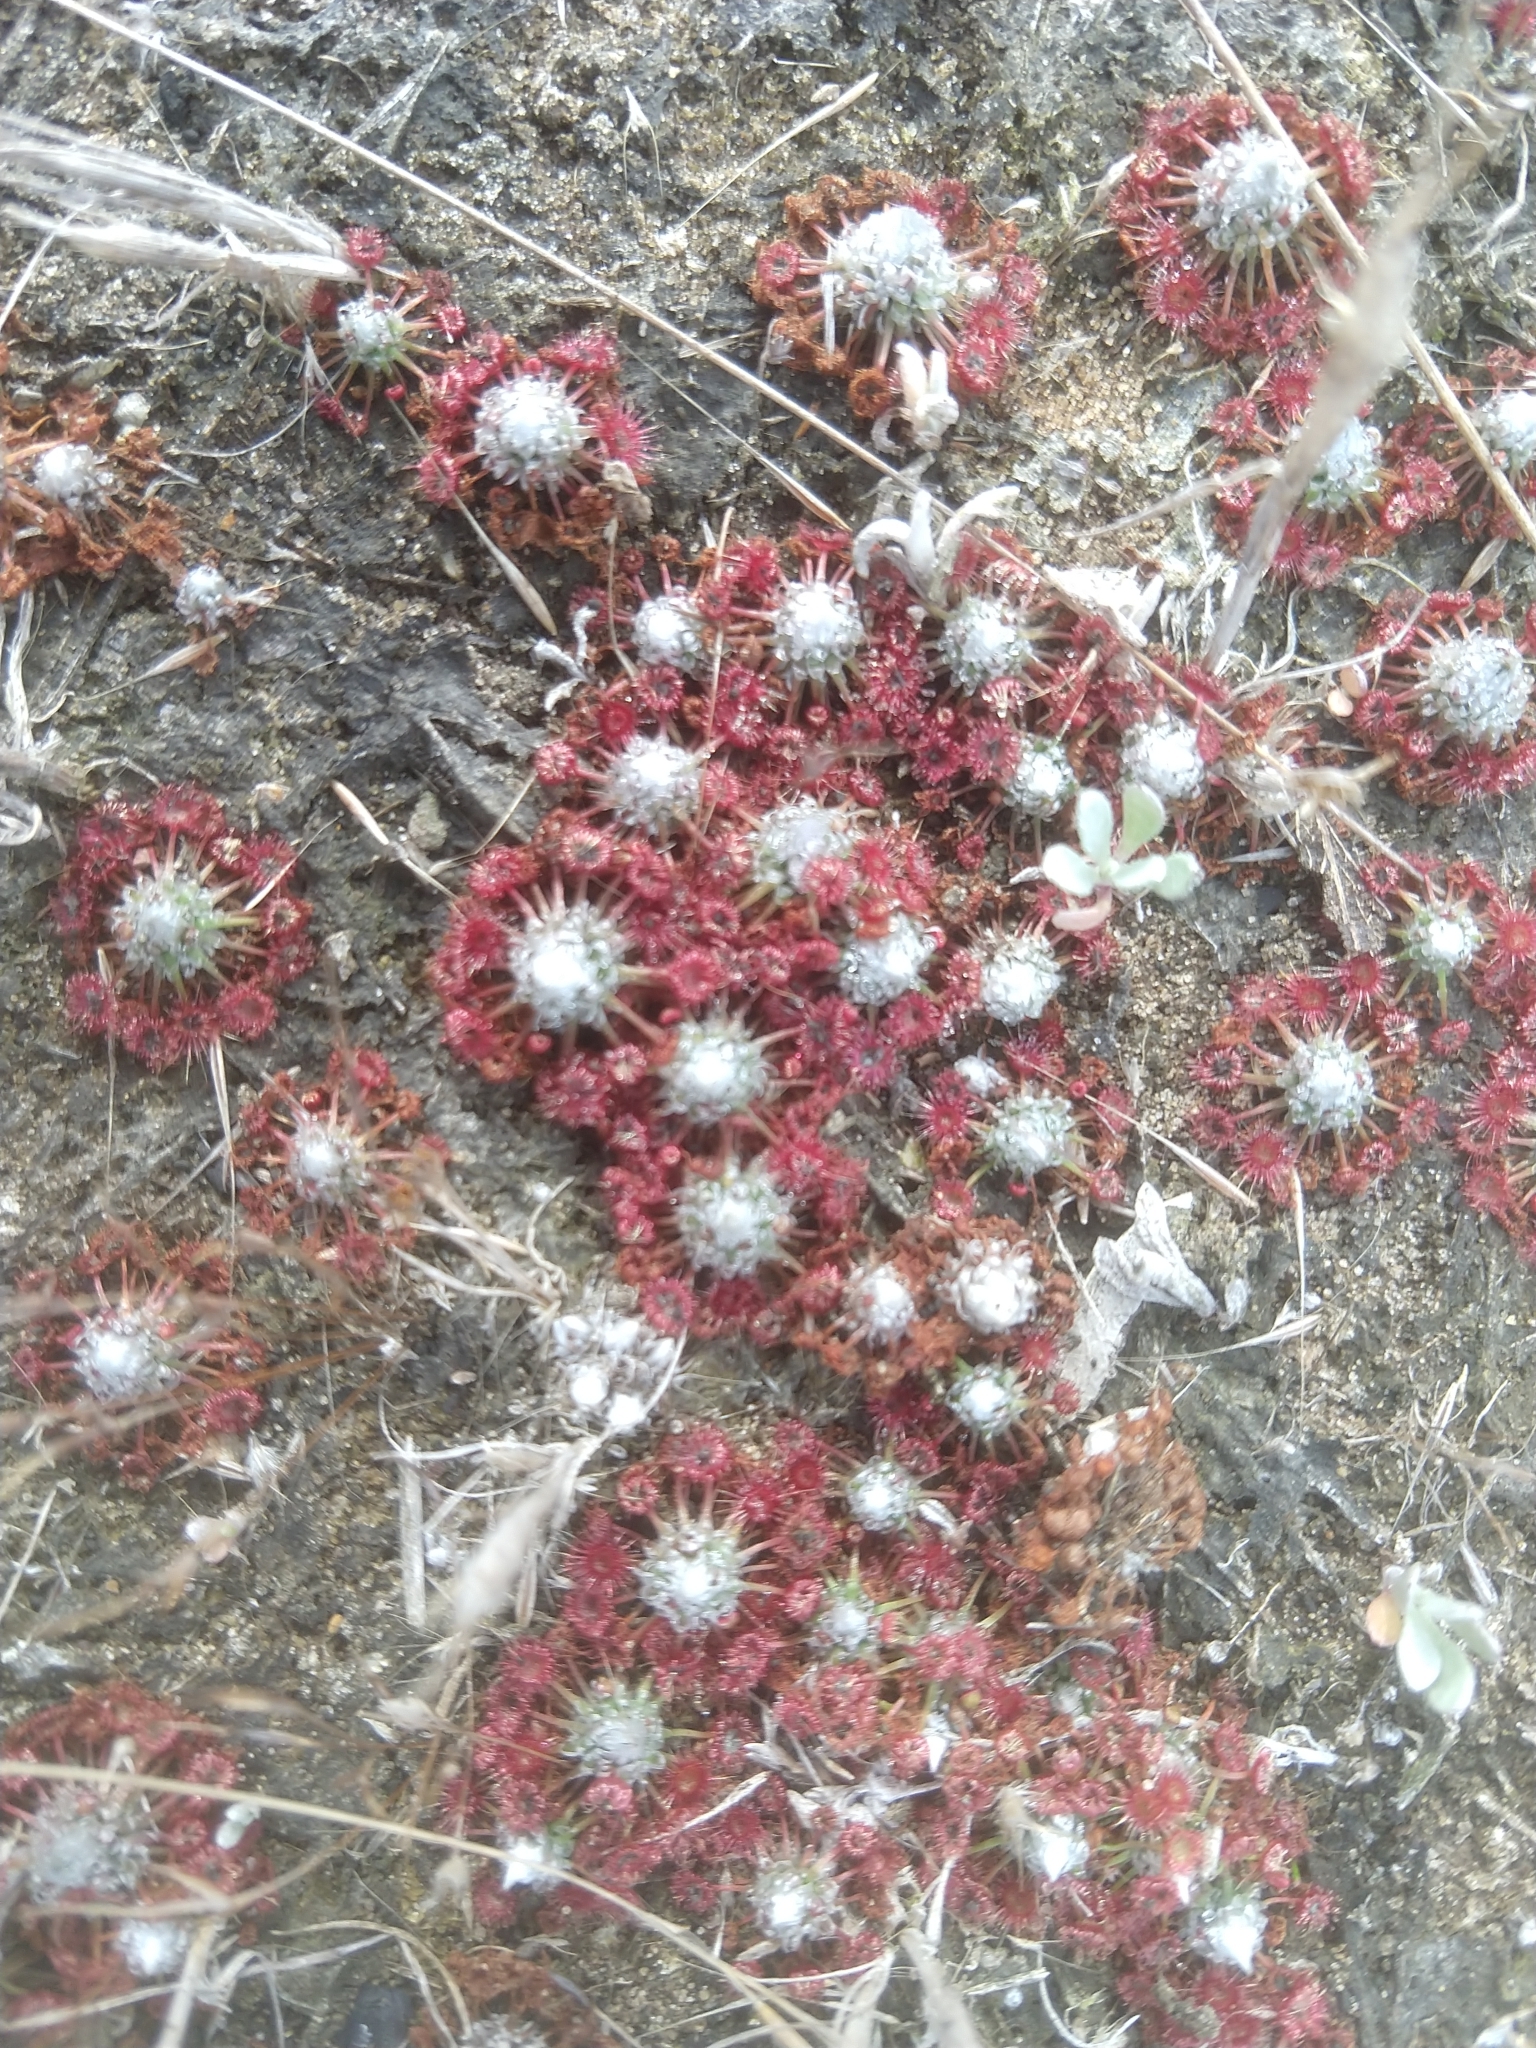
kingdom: Plantae
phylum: Tracheophyta
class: Magnoliopsida
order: Caryophyllales
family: Droseraceae
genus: Drosera
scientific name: Drosera pygmaea
